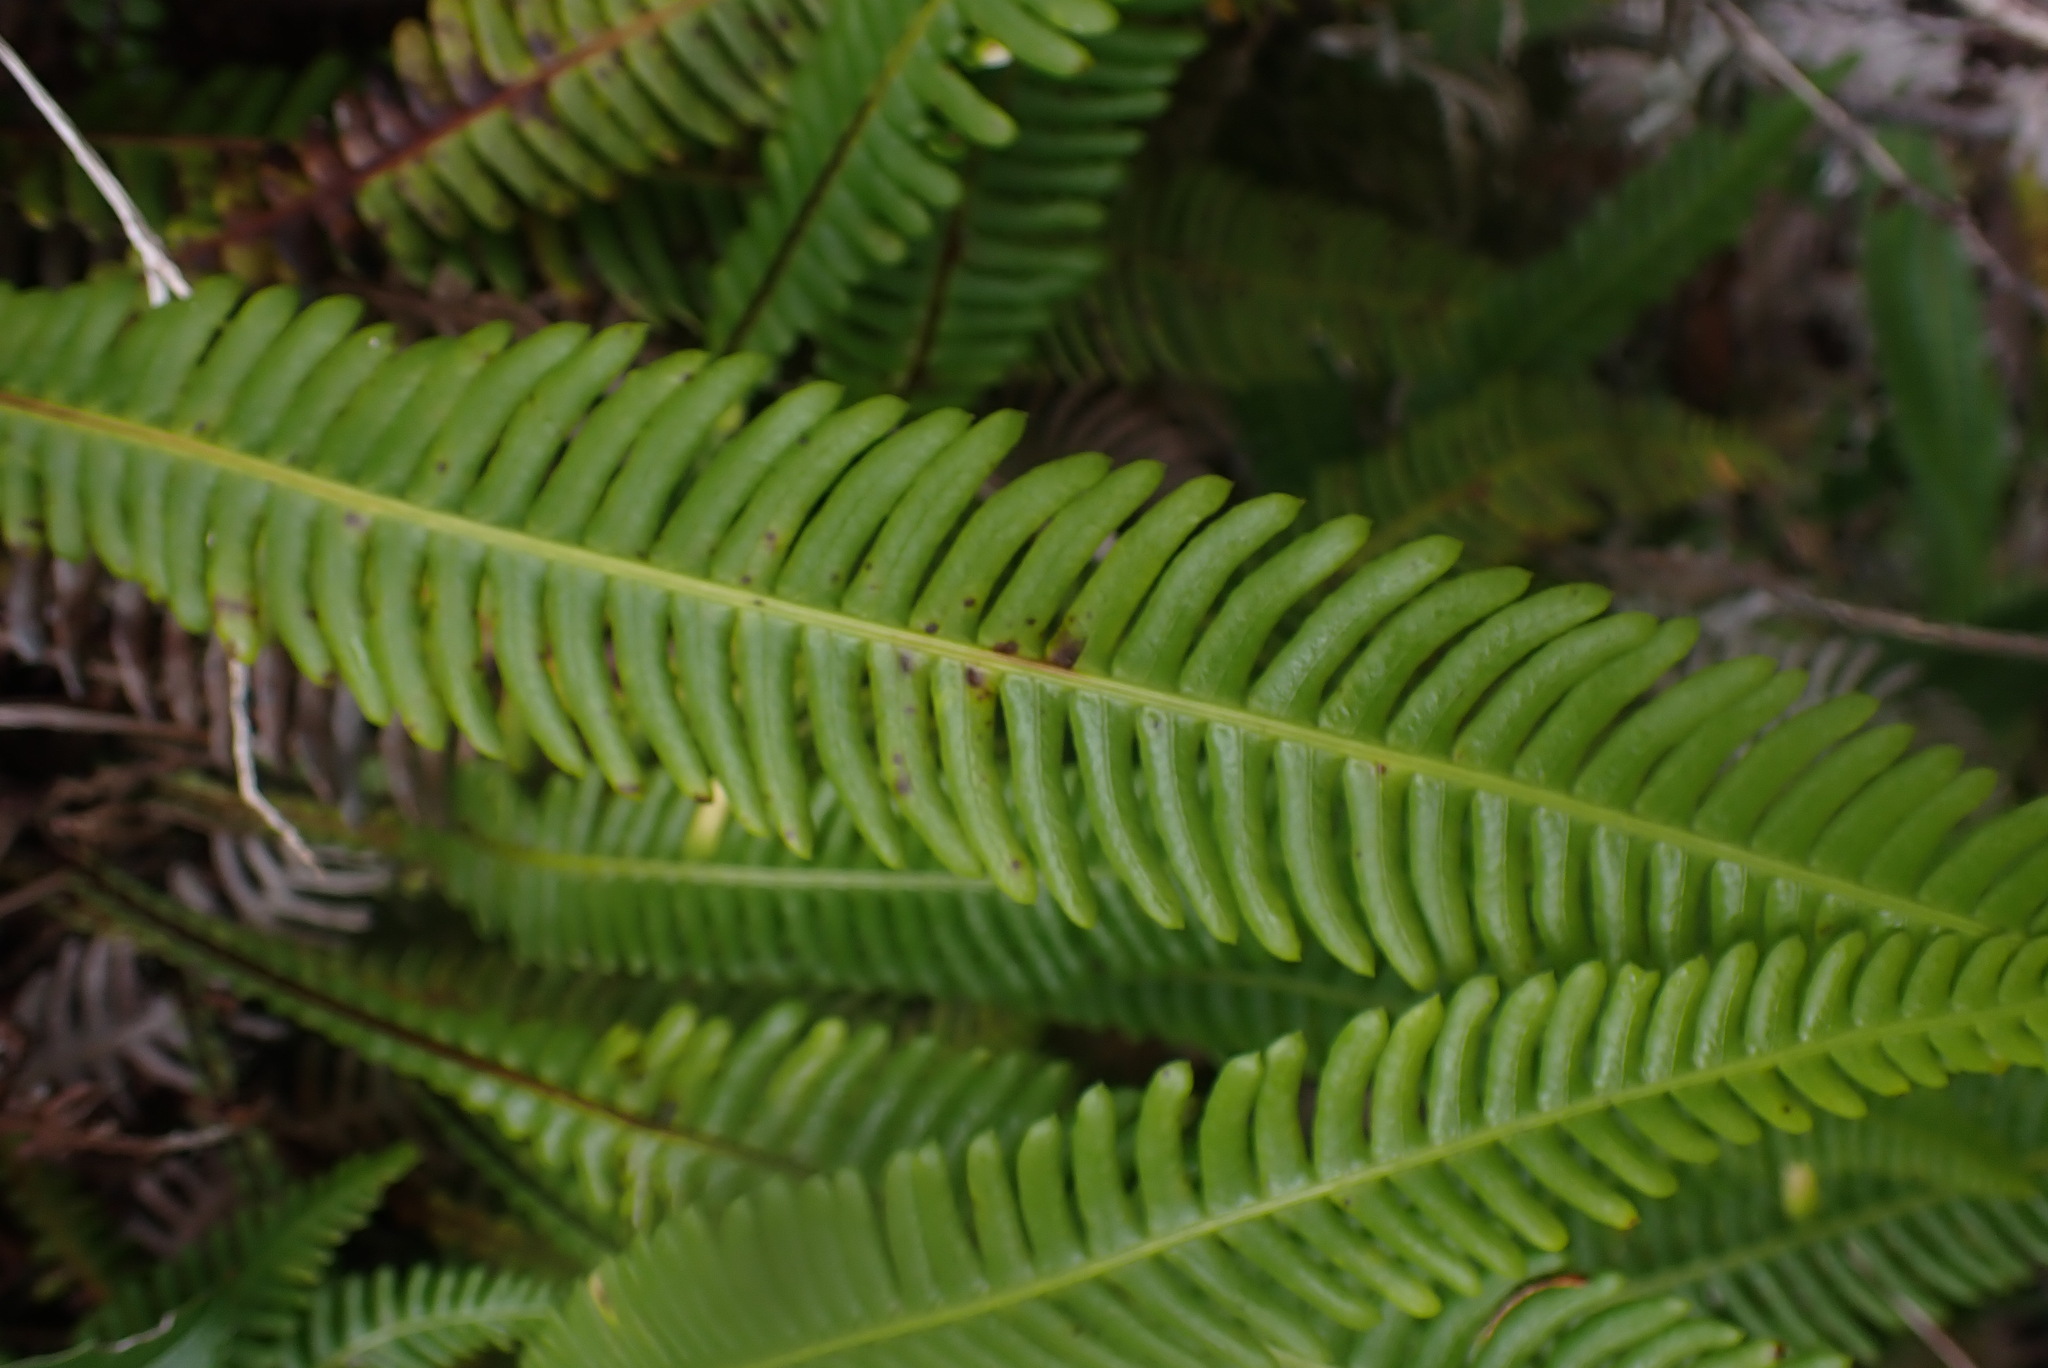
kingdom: Plantae
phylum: Tracheophyta
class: Polypodiopsida
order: Polypodiales
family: Blechnaceae
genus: Struthiopteris
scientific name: Struthiopteris spicant
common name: Deer fern
